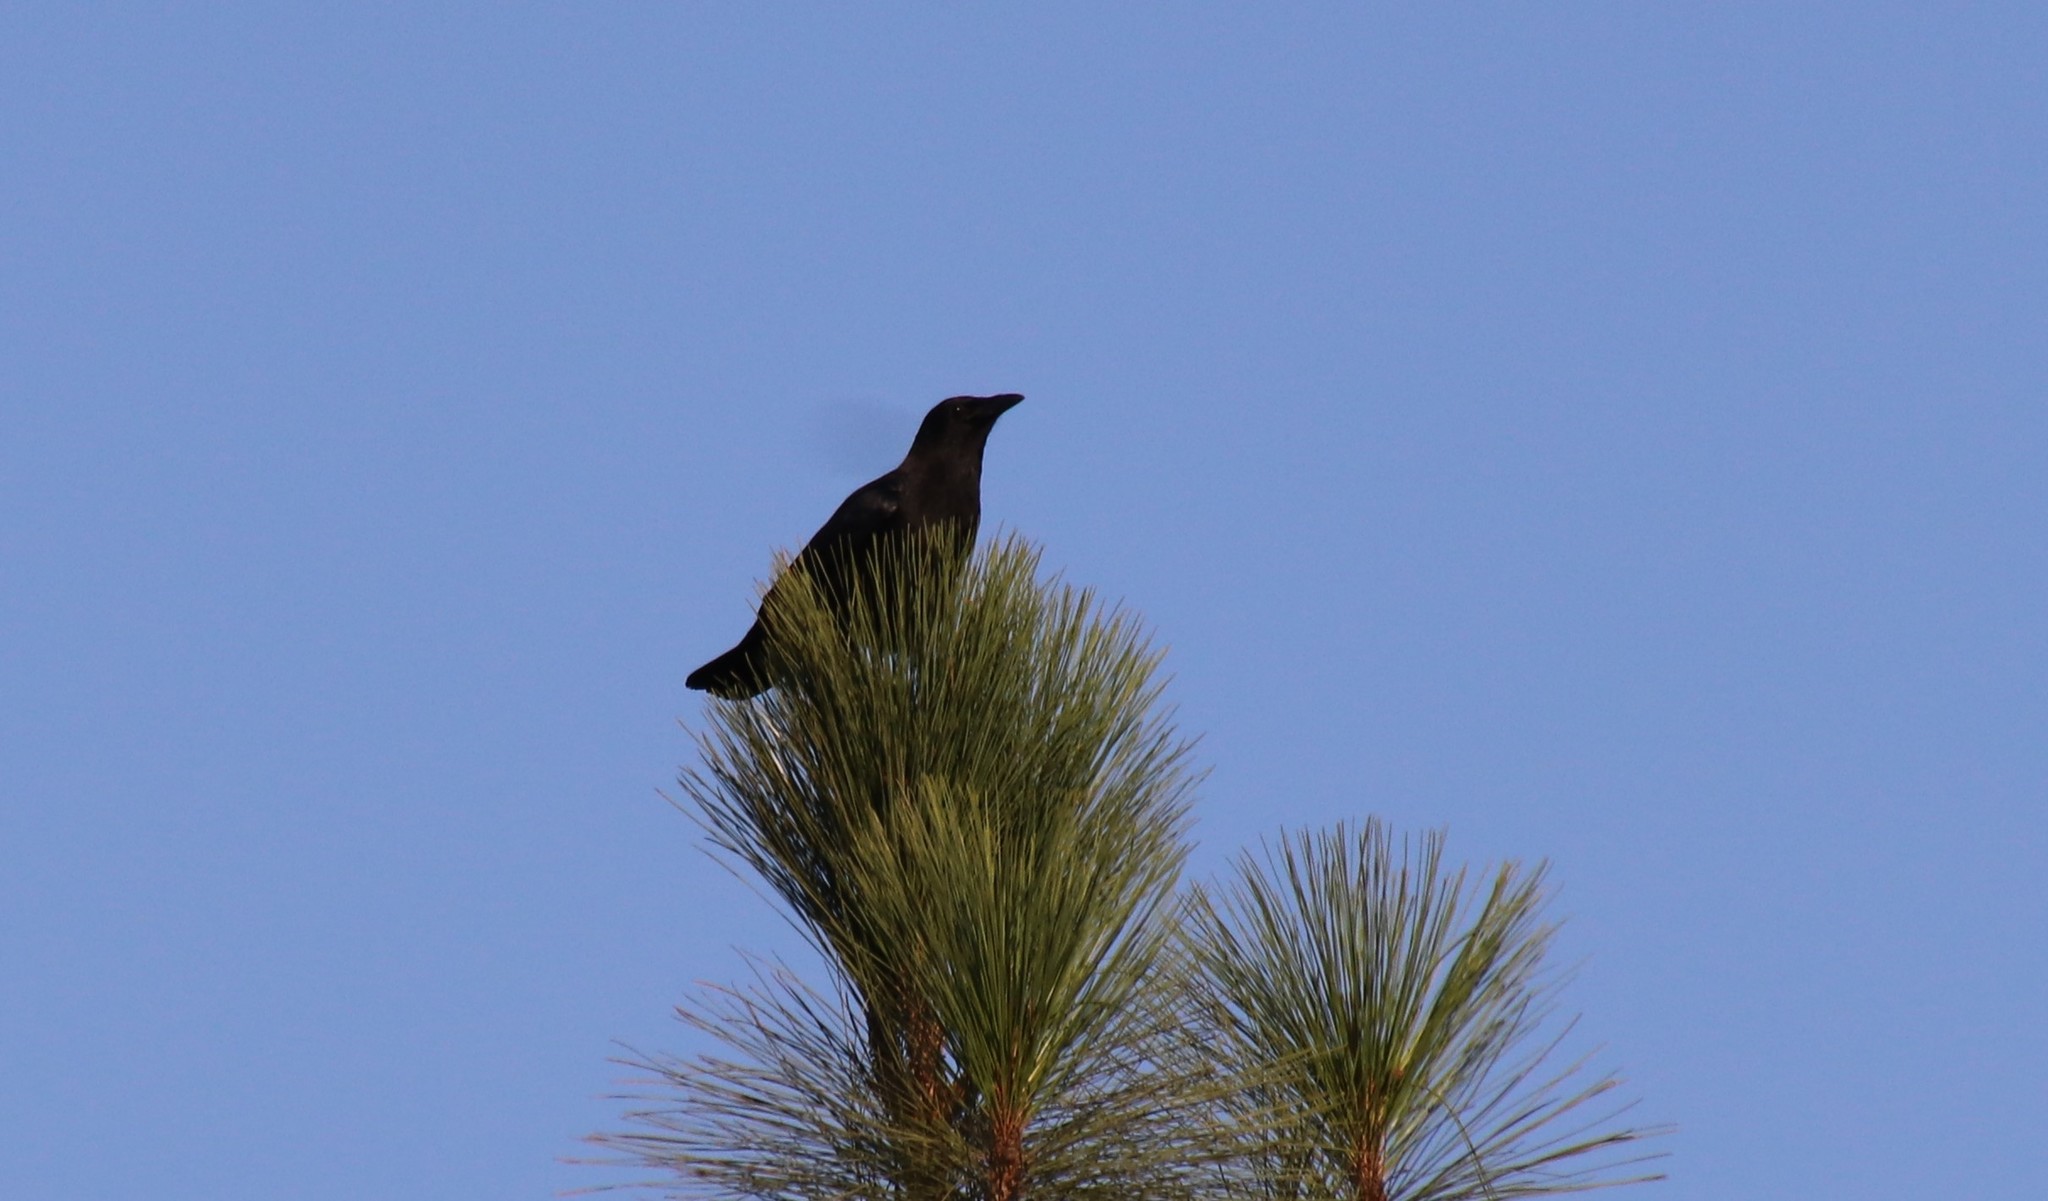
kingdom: Animalia
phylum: Chordata
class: Aves
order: Passeriformes
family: Corvidae
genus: Corvus
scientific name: Corvus brachyrhynchos
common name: American crow
